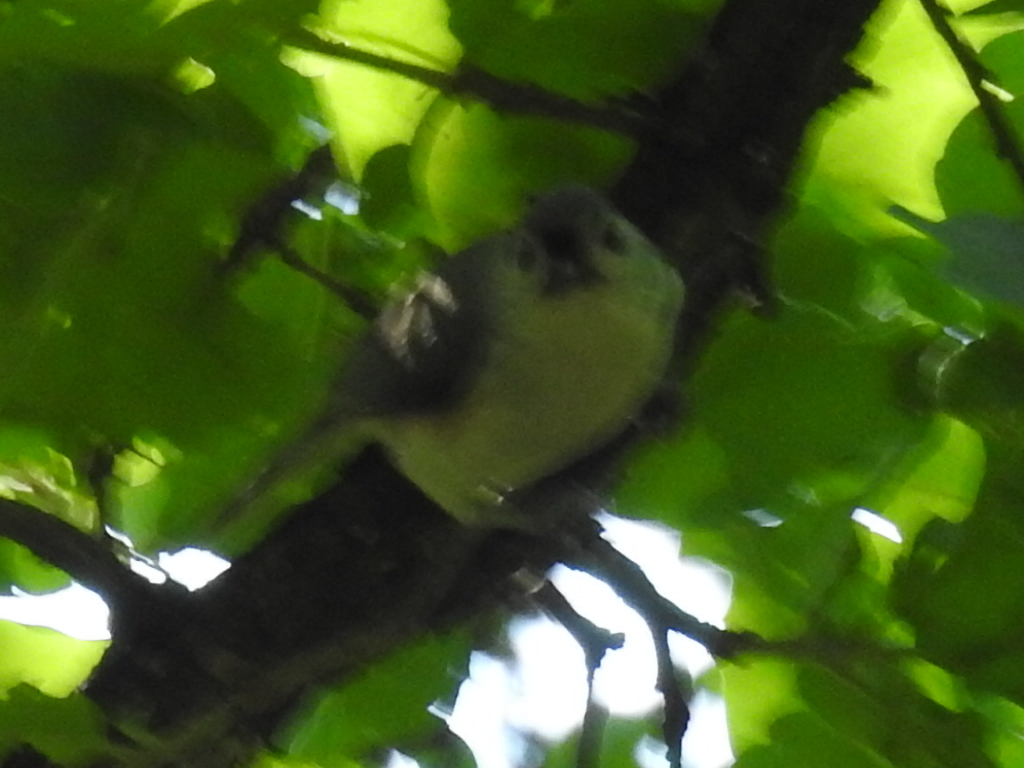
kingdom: Animalia
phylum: Chordata
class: Aves
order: Passeriformes
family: Paridae
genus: Baeolophus
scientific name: Baeolophus bicolor
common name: Tufted titmouse
